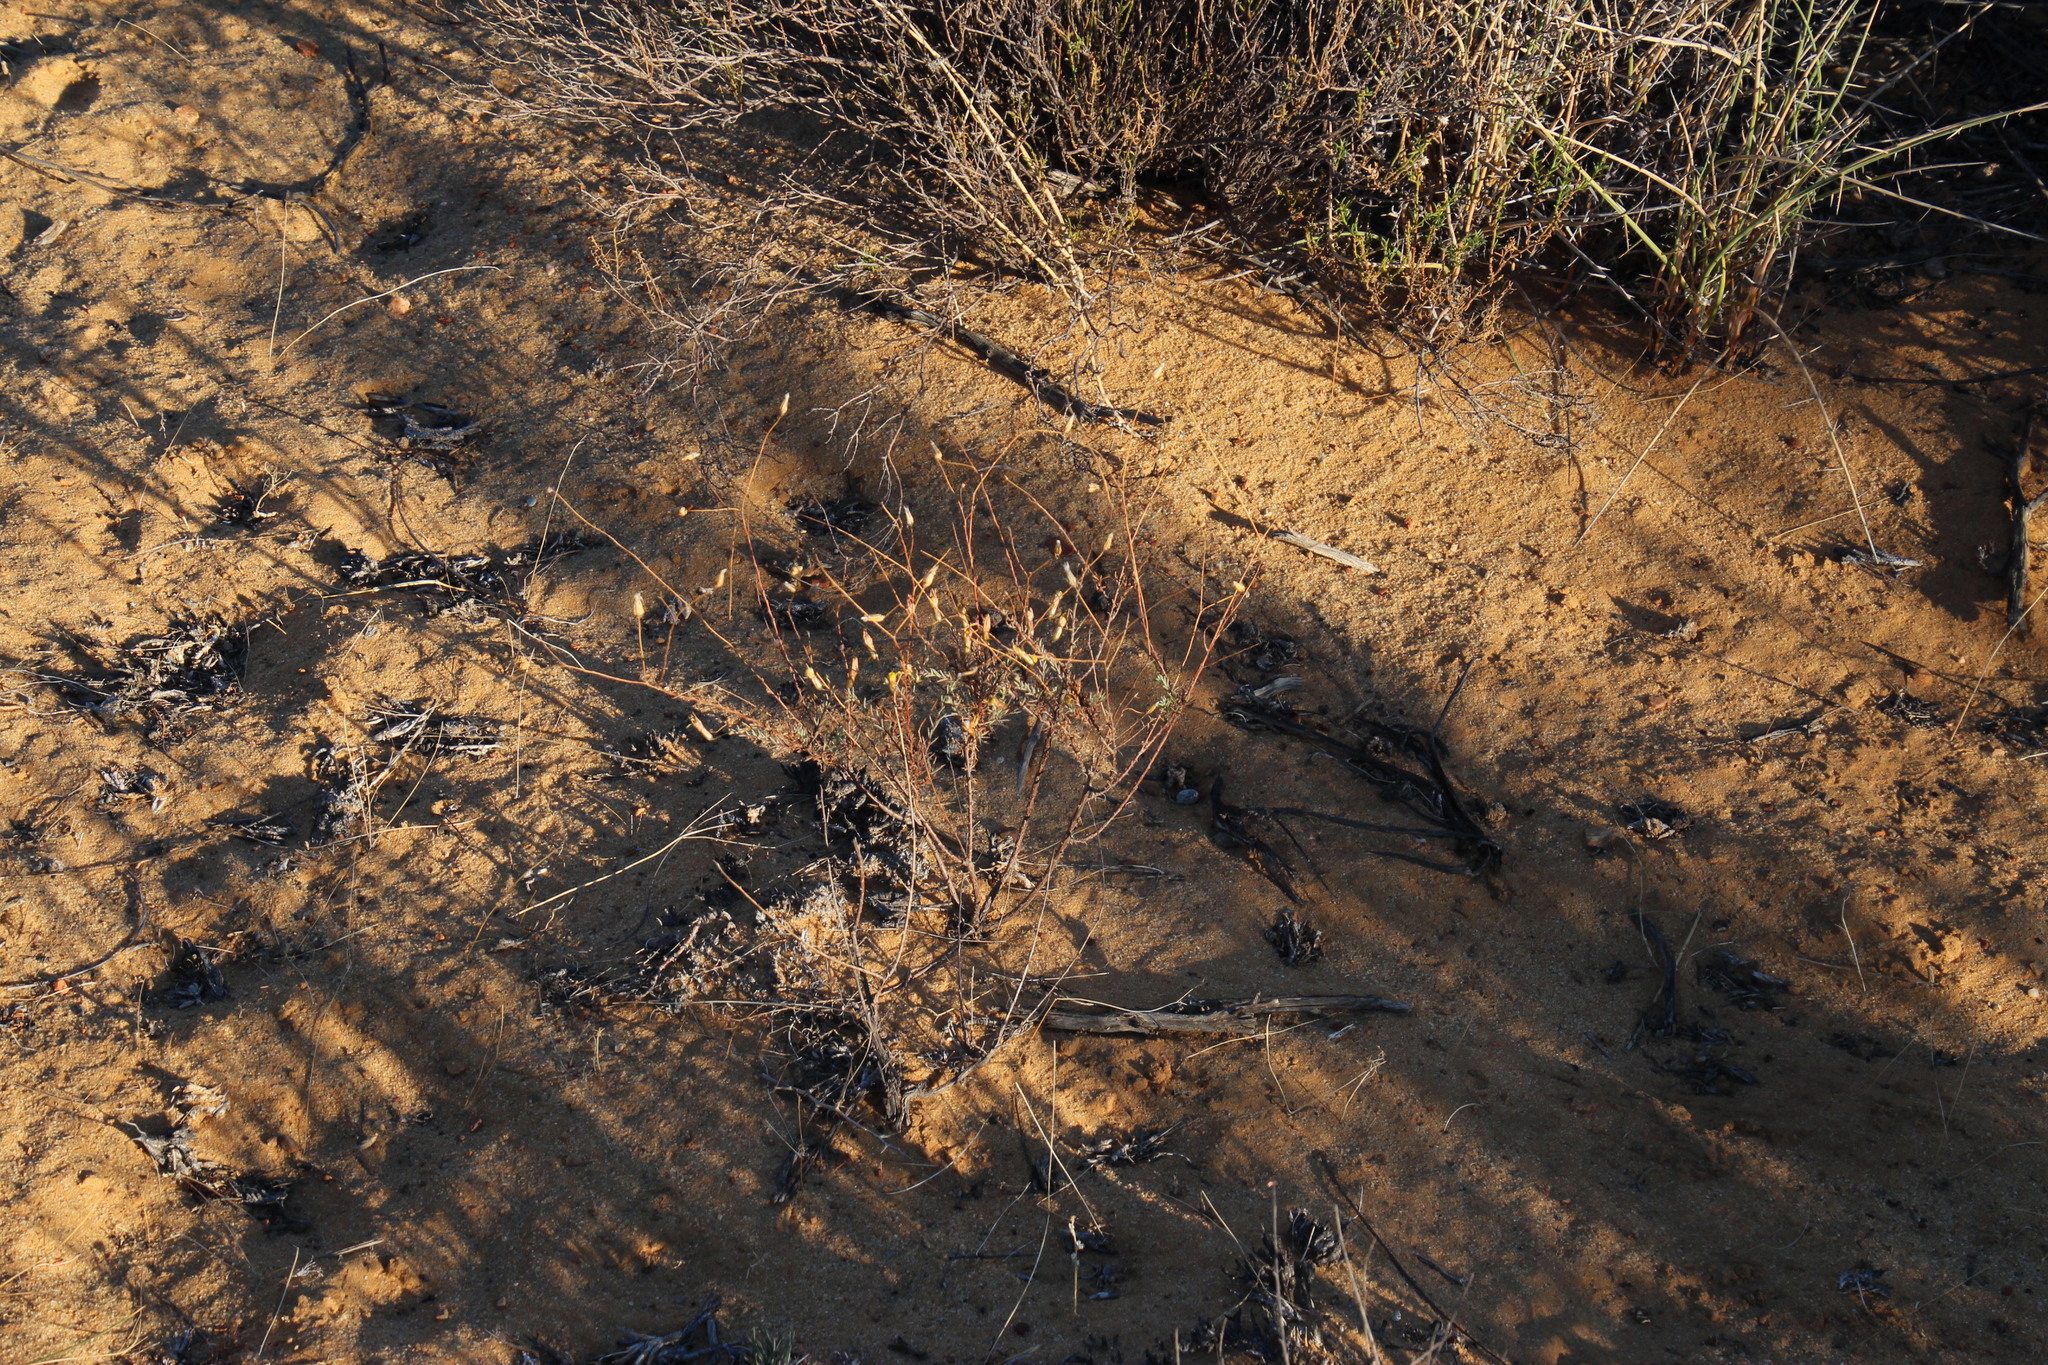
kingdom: Plantae
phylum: Tracheophyta
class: Magnoliopsida
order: Asterales
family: Asteraceae
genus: Leysera
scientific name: Leysera gnaphalodes
